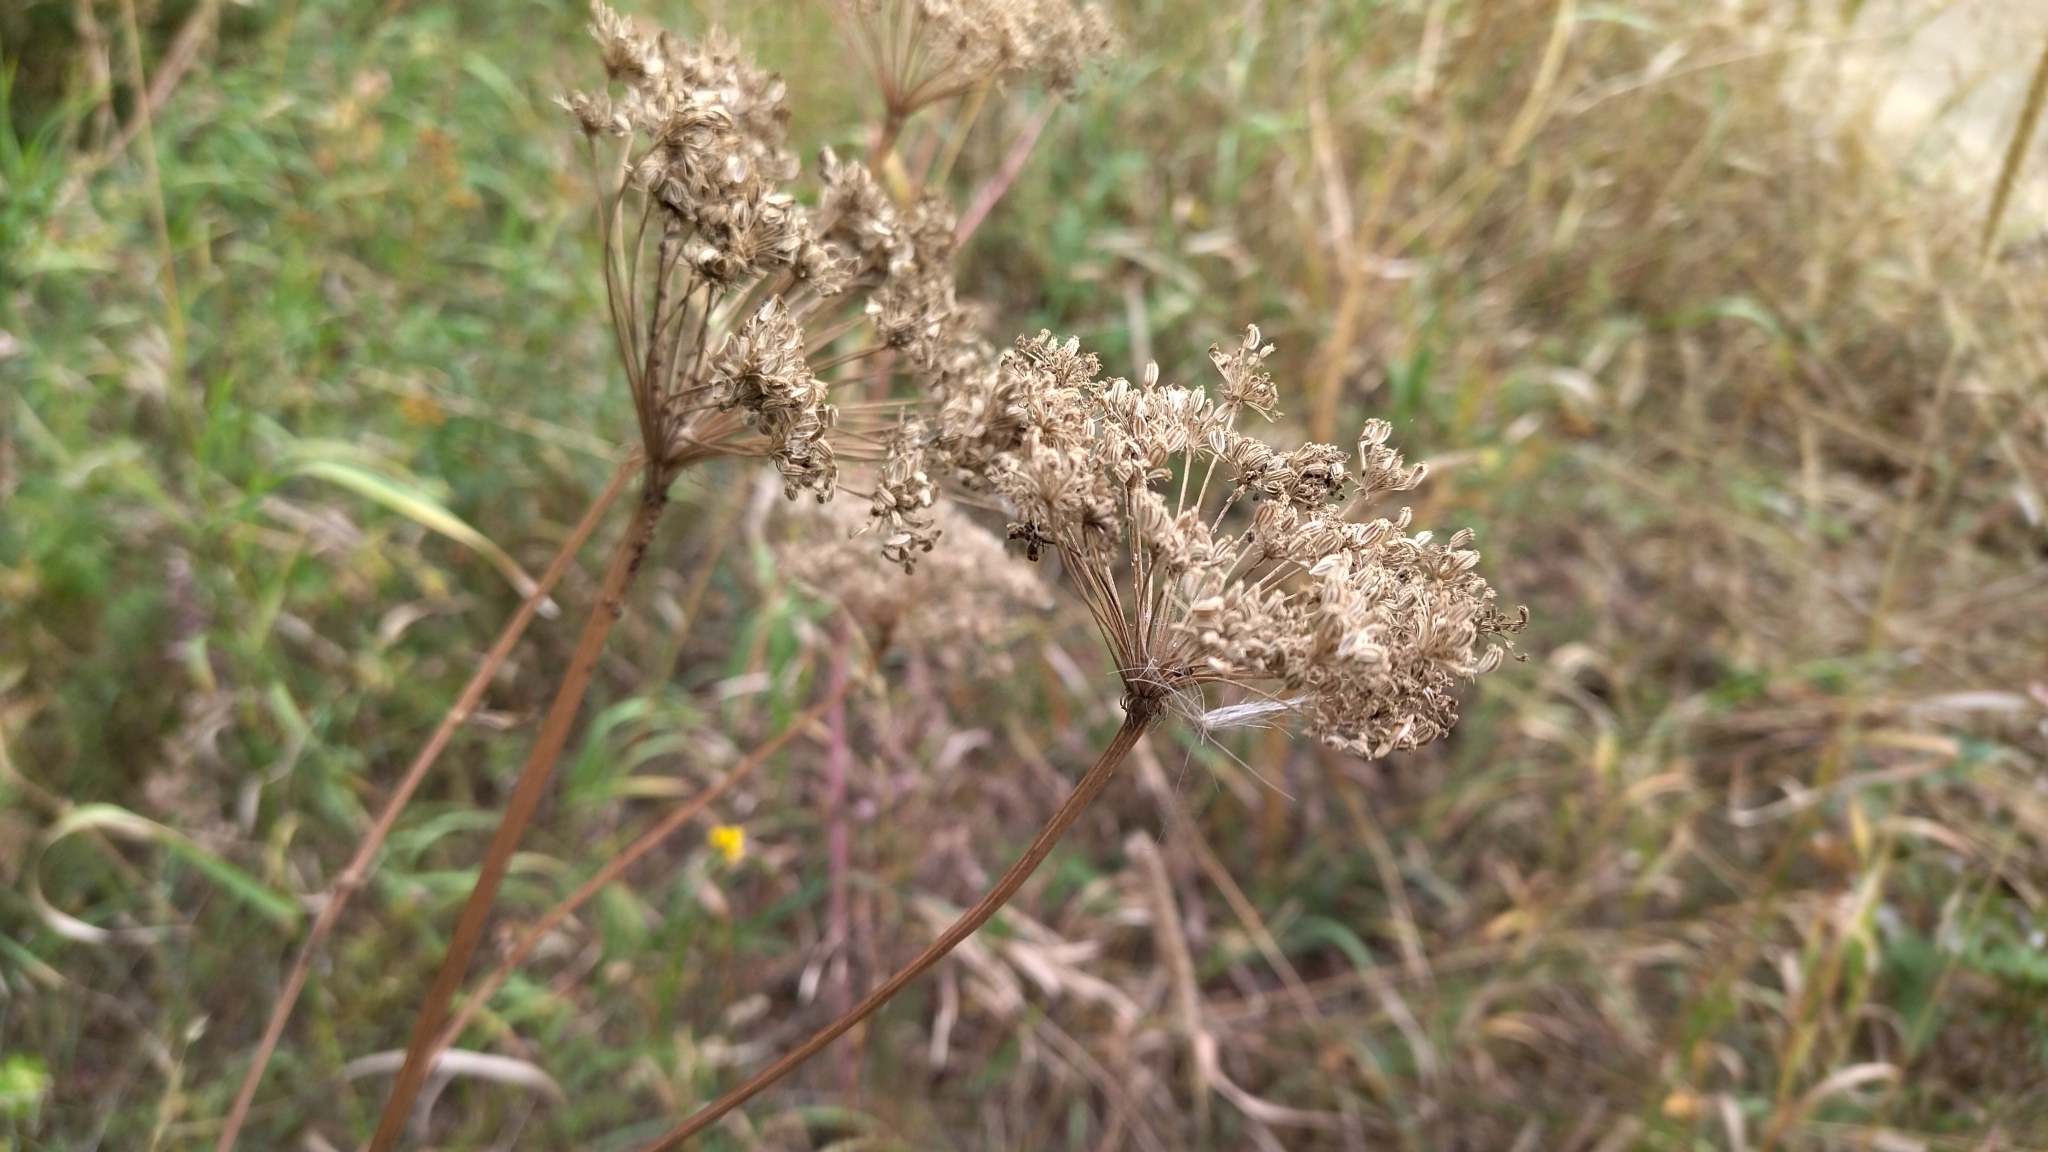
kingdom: Plantae
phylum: Tracheophyta
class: Magnoliopsida
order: Apiales
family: Apiaceae
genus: Seseli
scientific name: Seseli libanotis
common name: Mooncarrot
